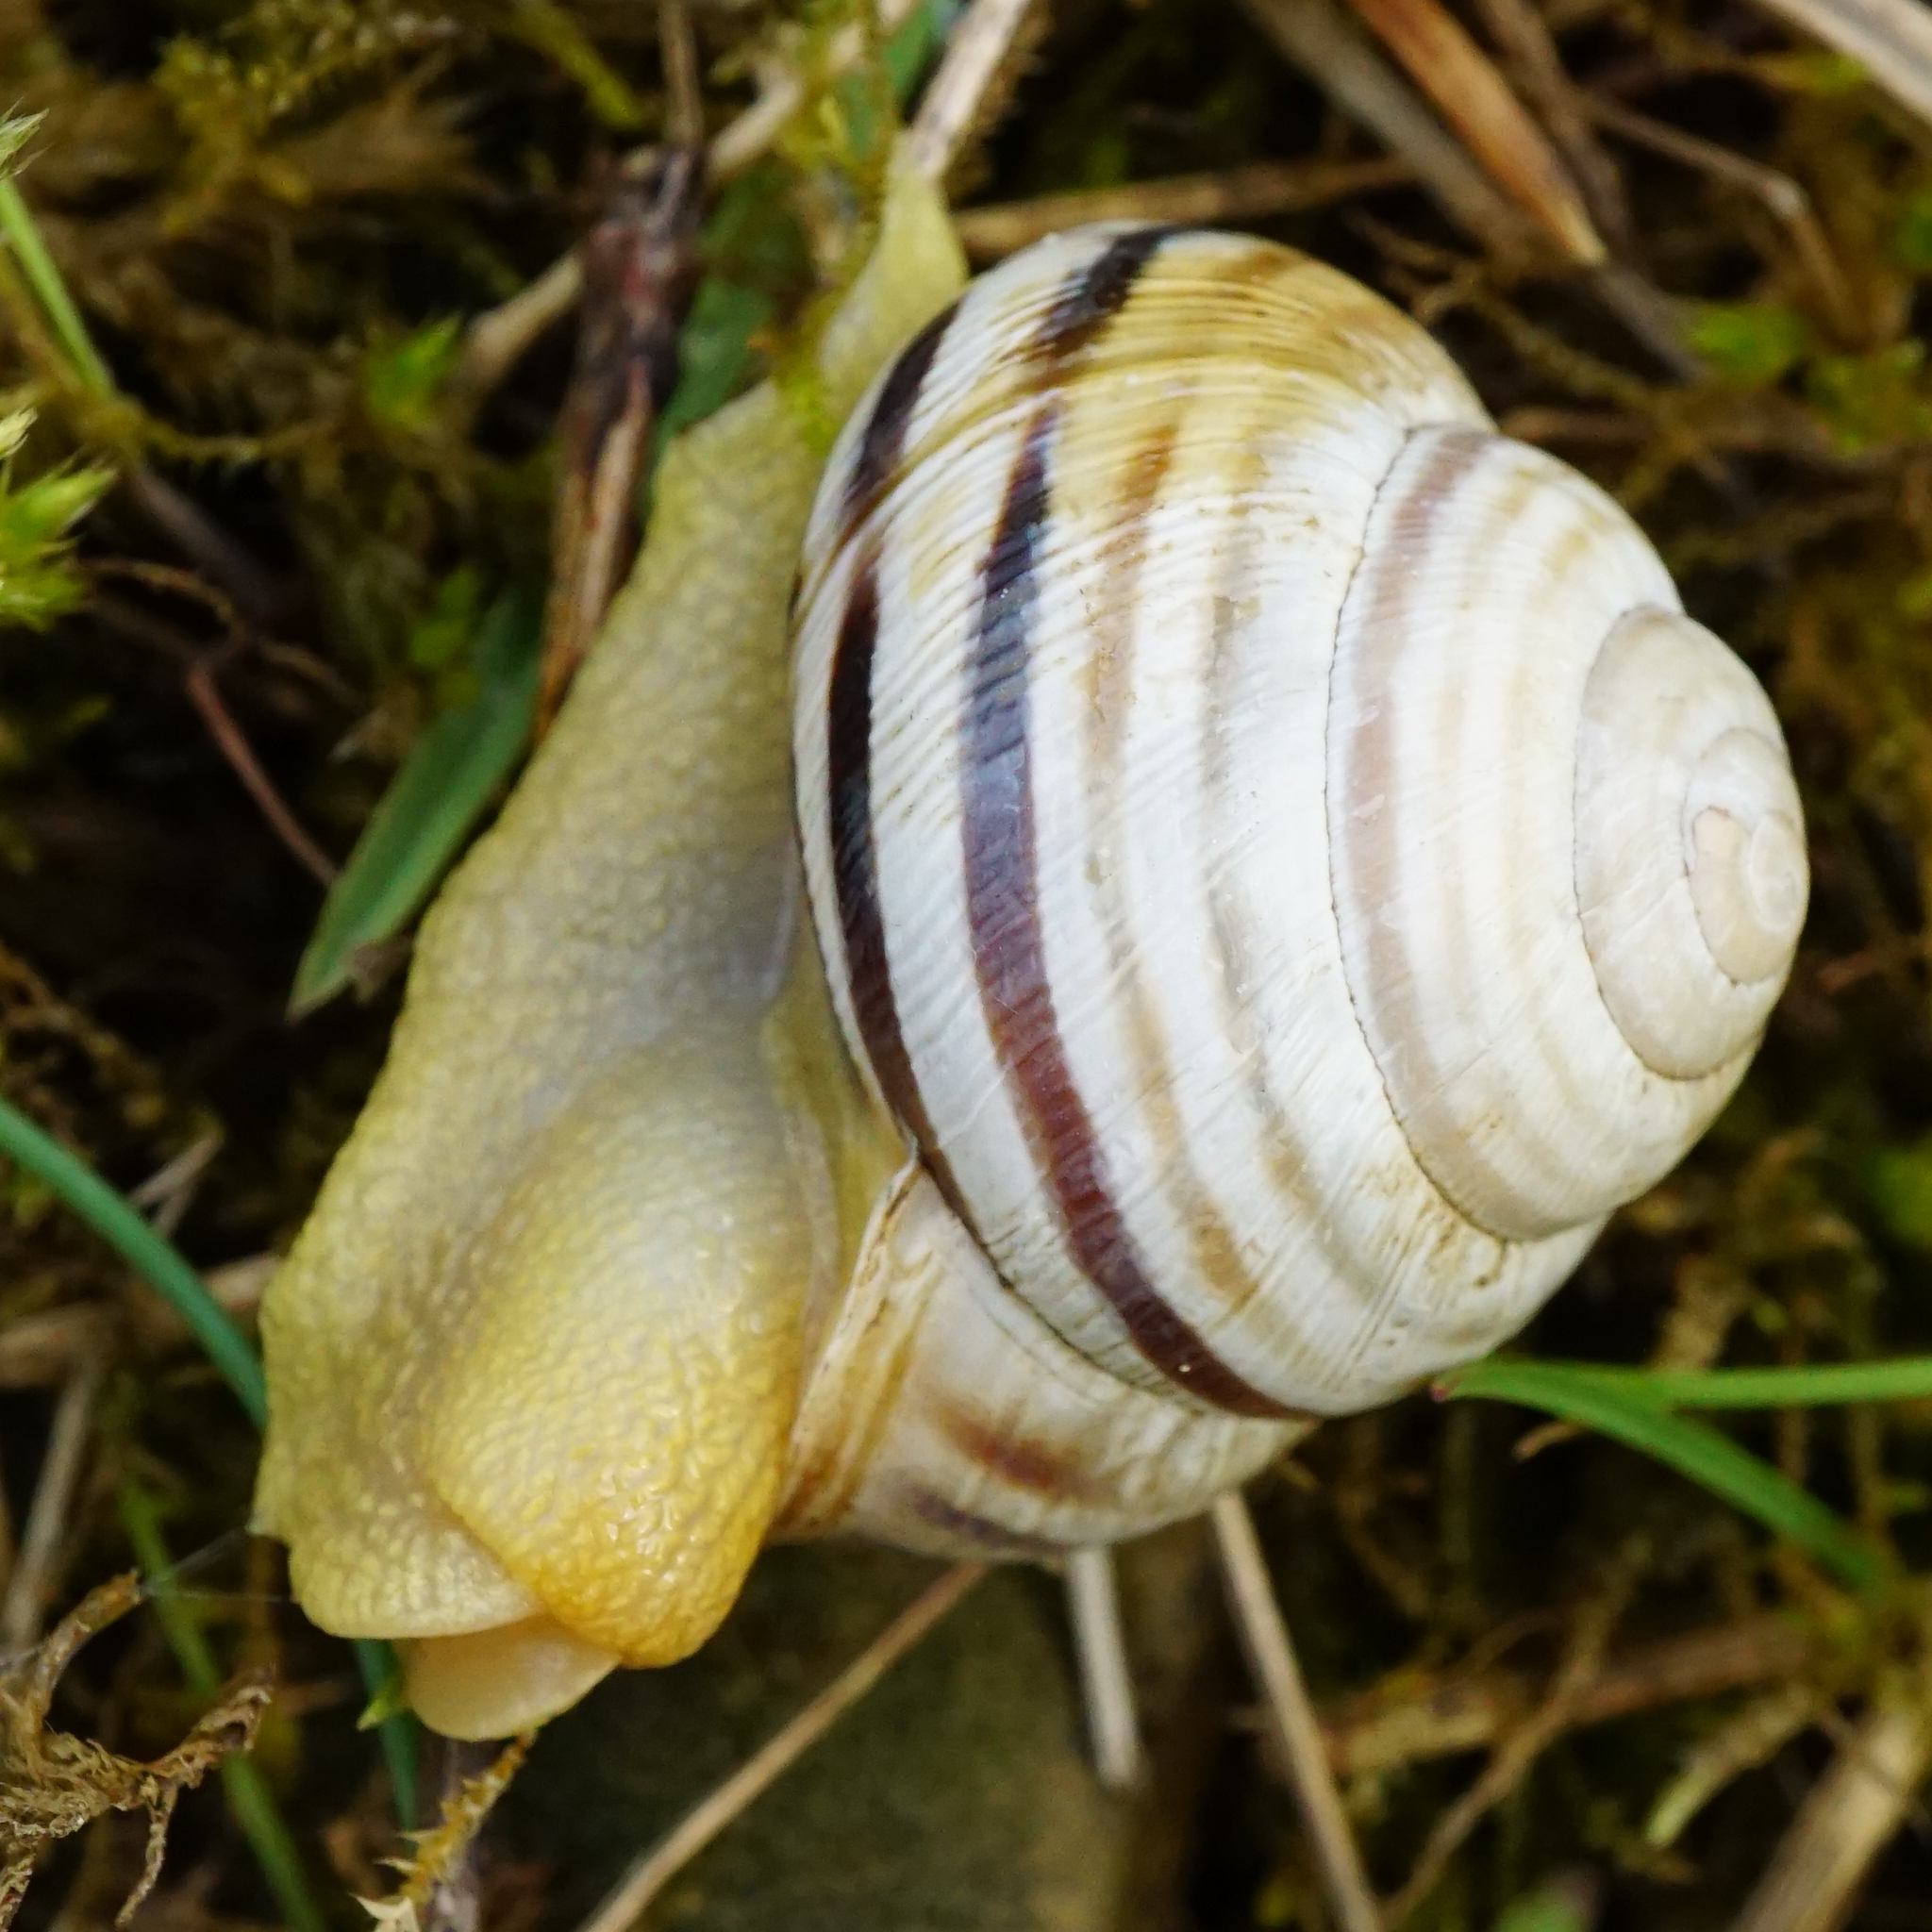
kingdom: Animalia
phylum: Mollusca
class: Gastropoda
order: Stylommatophora
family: Helicidae
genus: Caucasotachea
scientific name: Caucasotachea vindobonensis
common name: European helicid land snail
